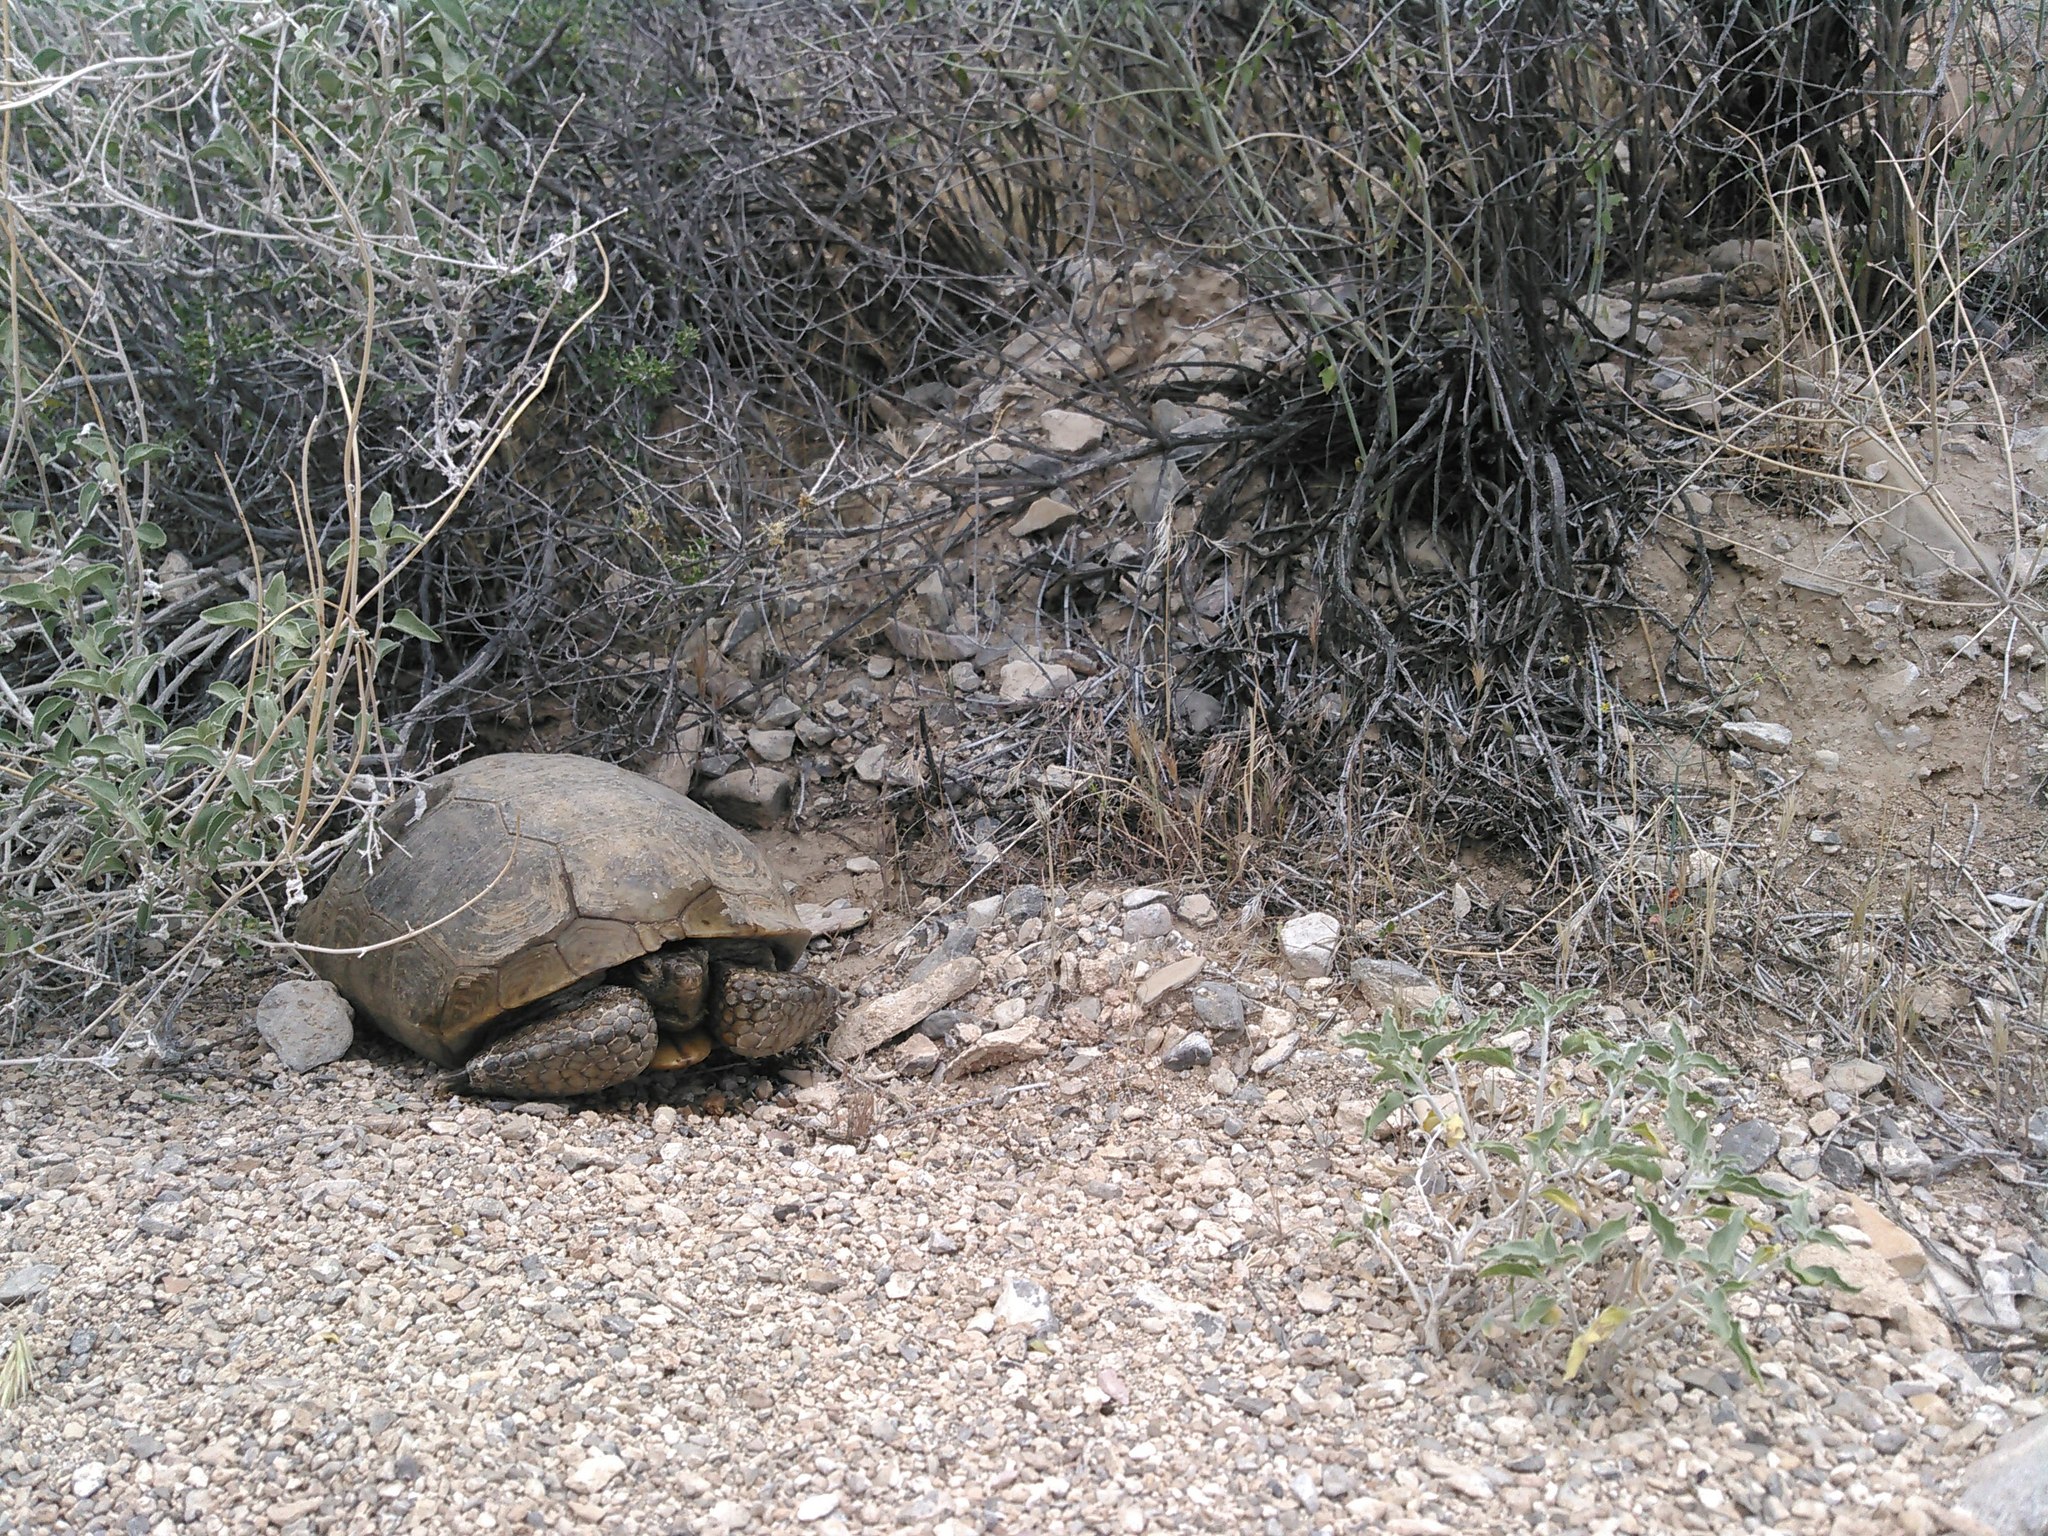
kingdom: Animalia
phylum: Chordata
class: Testudines
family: Testudinidae
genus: Gopherus
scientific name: Gopherus agassizii
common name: Mojave desert tortoise
